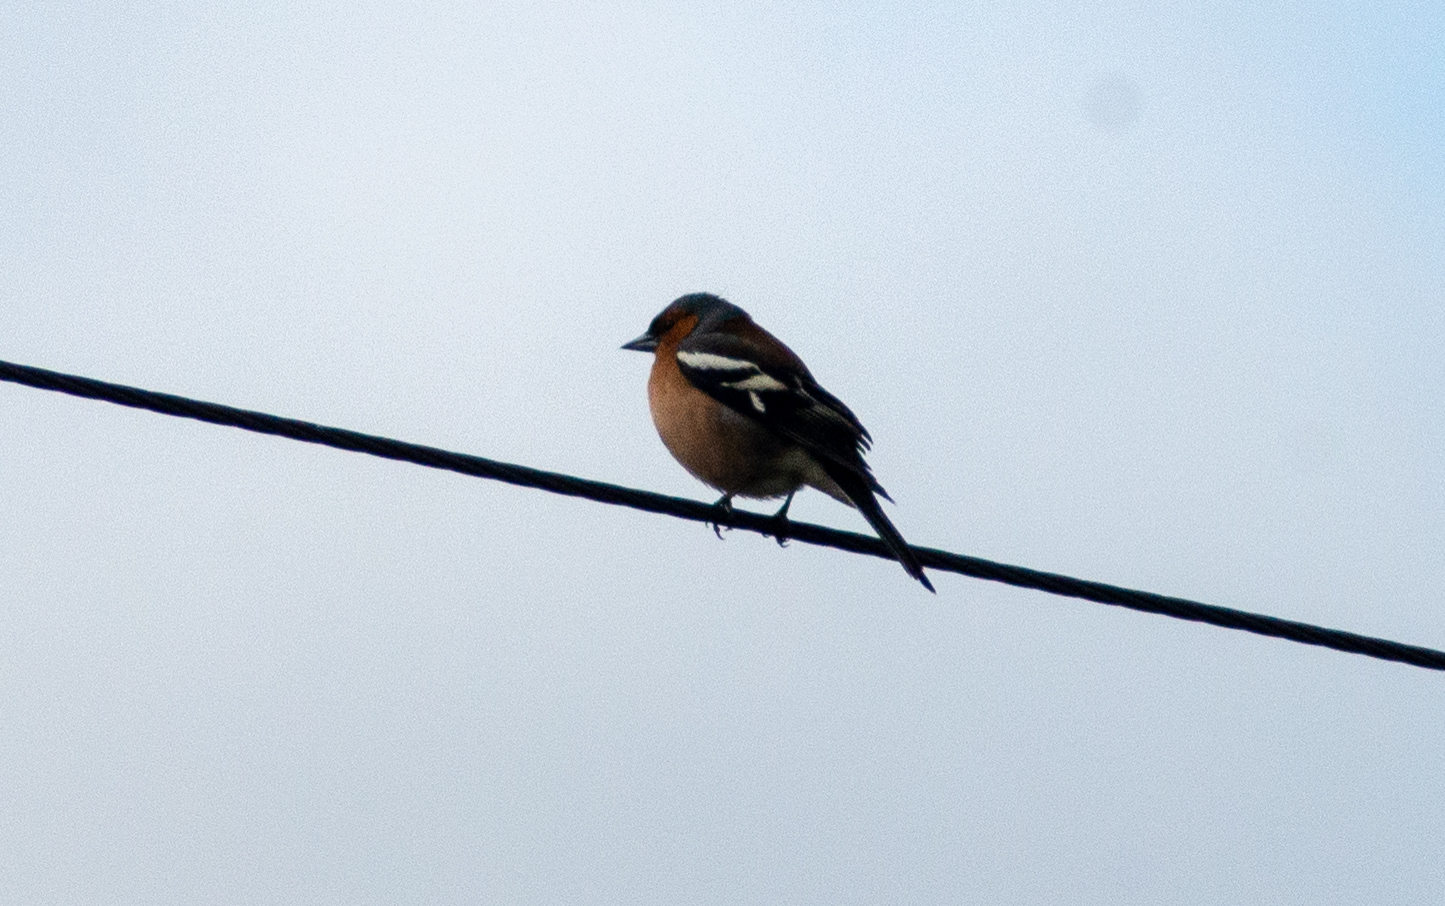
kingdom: Animalia
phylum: Chordata
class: Aves
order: Passeriformes
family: Fringillidae
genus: Fringilla
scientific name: Fringilla coelebs
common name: Common chaffinch
